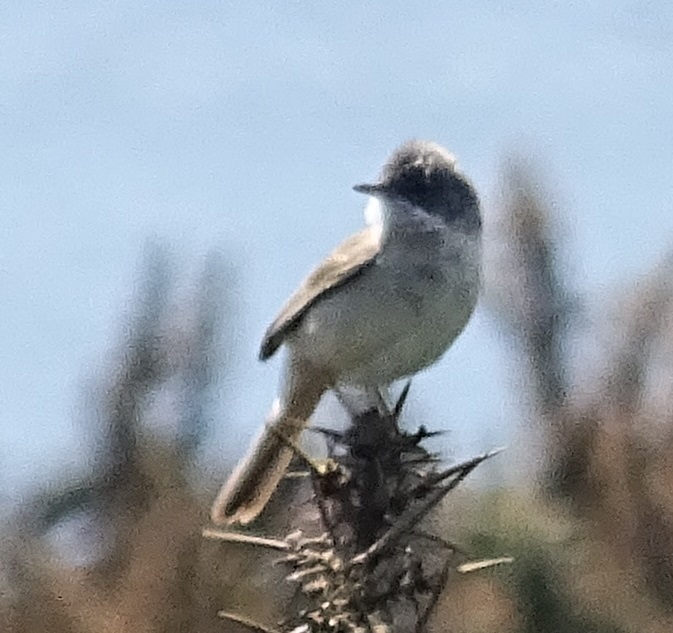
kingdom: Animalia
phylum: Chordata
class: Aves
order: Passeriformes
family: Sylviidae
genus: Sylvia
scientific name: Sylvia communis
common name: Common whitethroat
